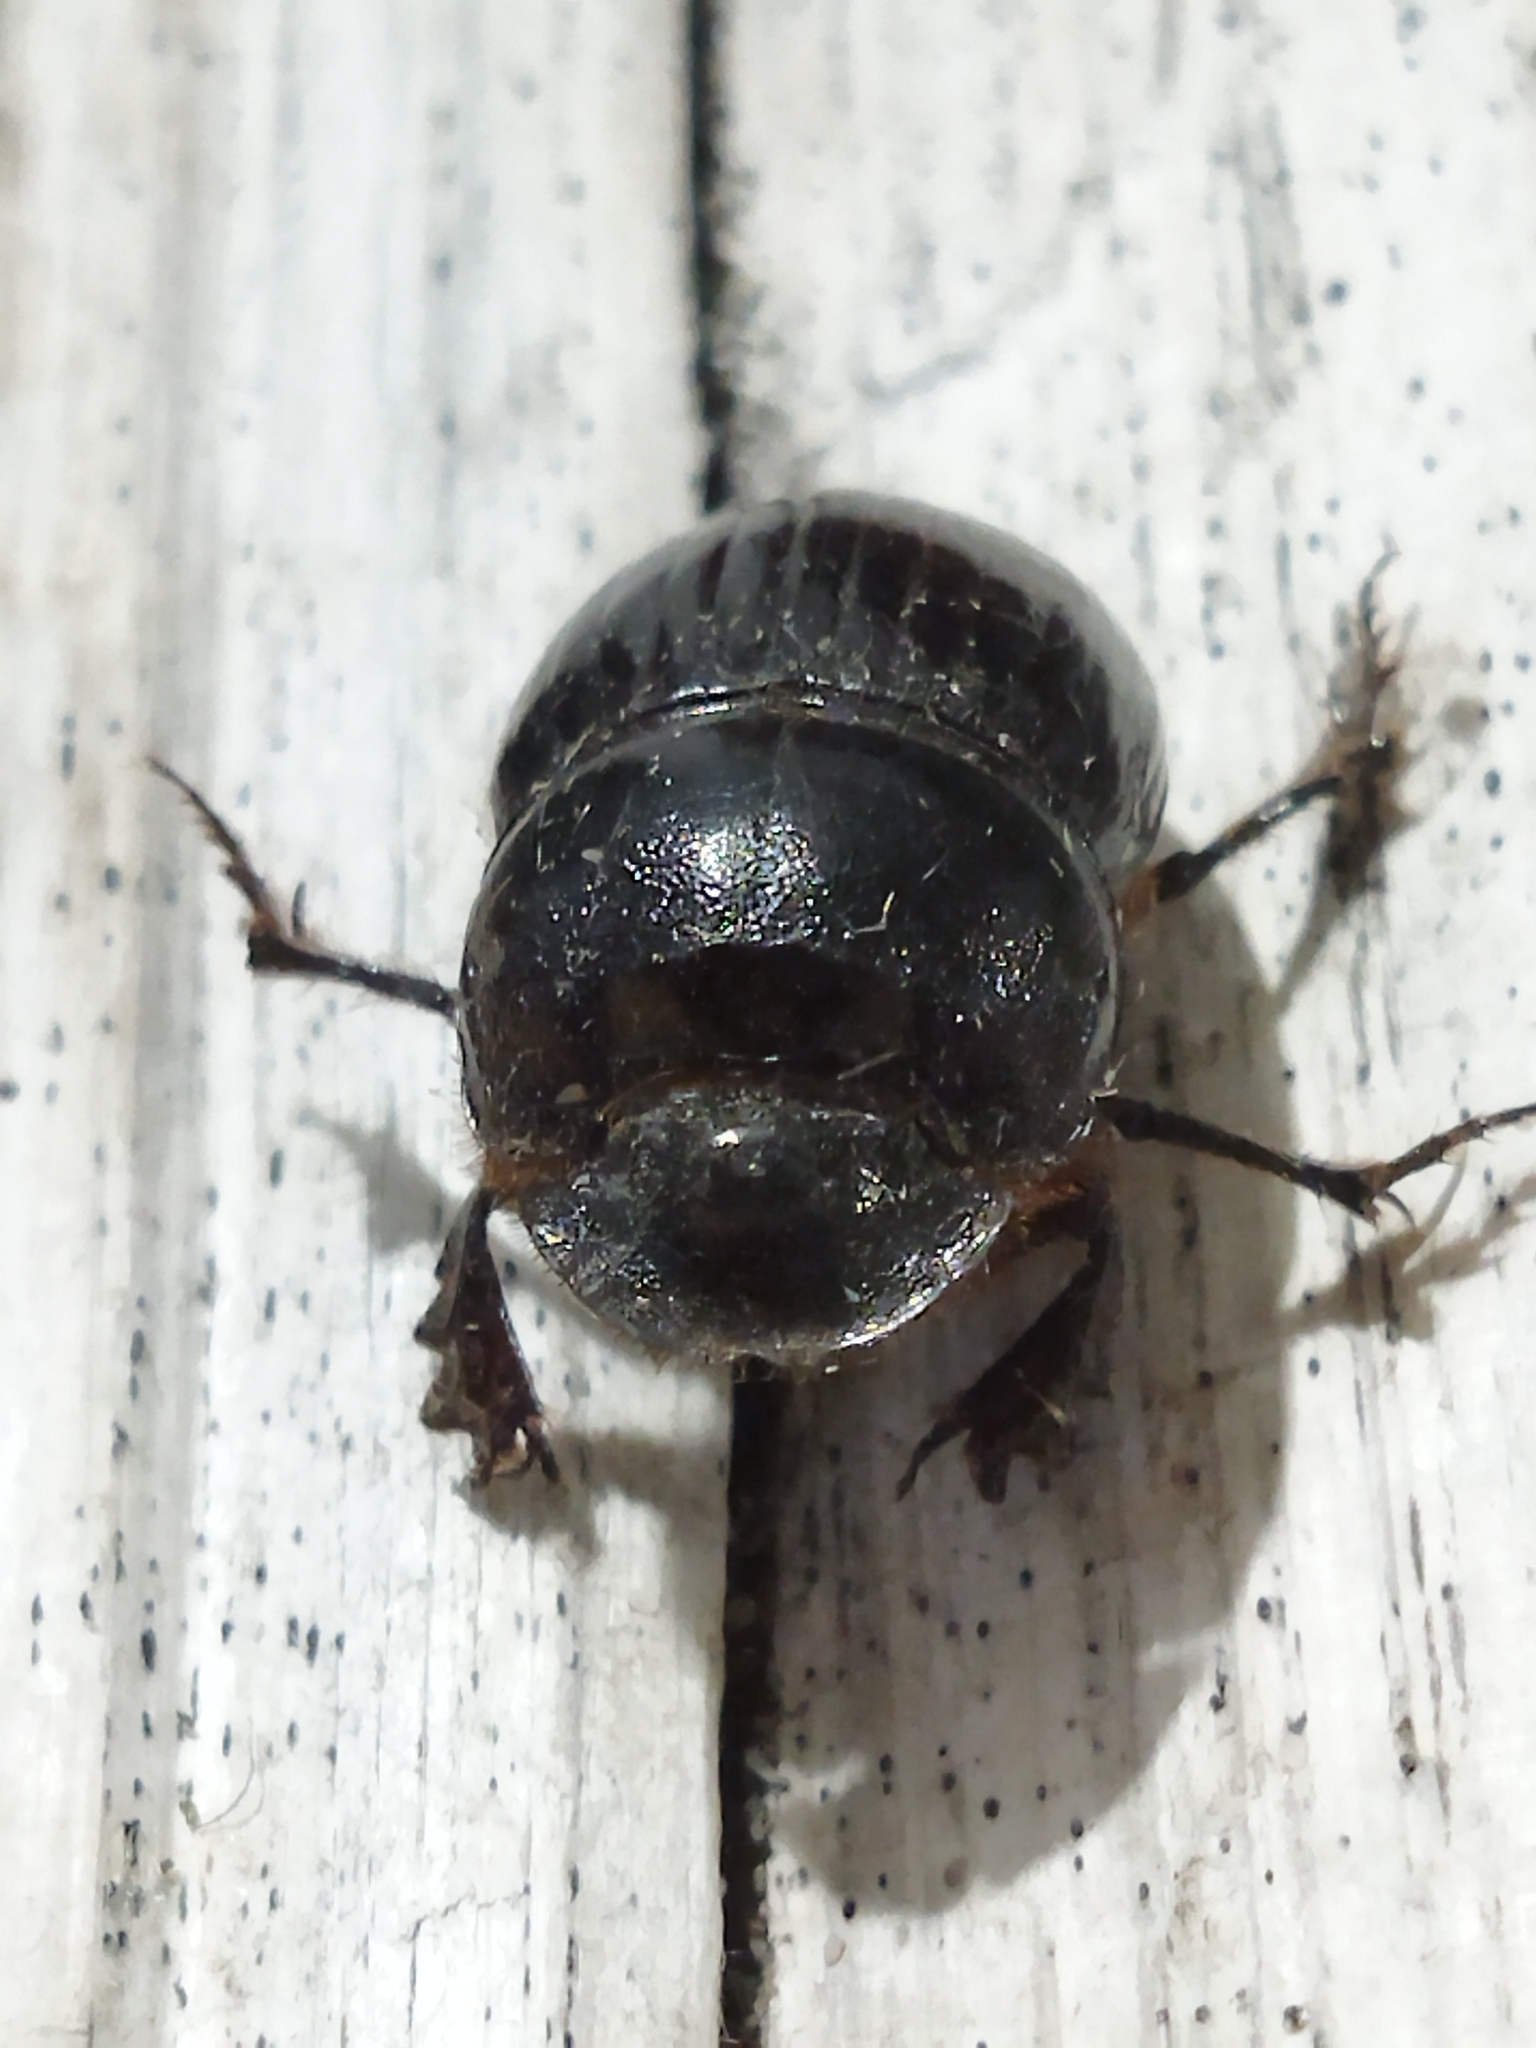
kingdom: Animalia
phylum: Arthropoda
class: Insecta
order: Coleoptera
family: Scarabaeidae
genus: Copris
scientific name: Copris lunaris
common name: Horned dung beetle
